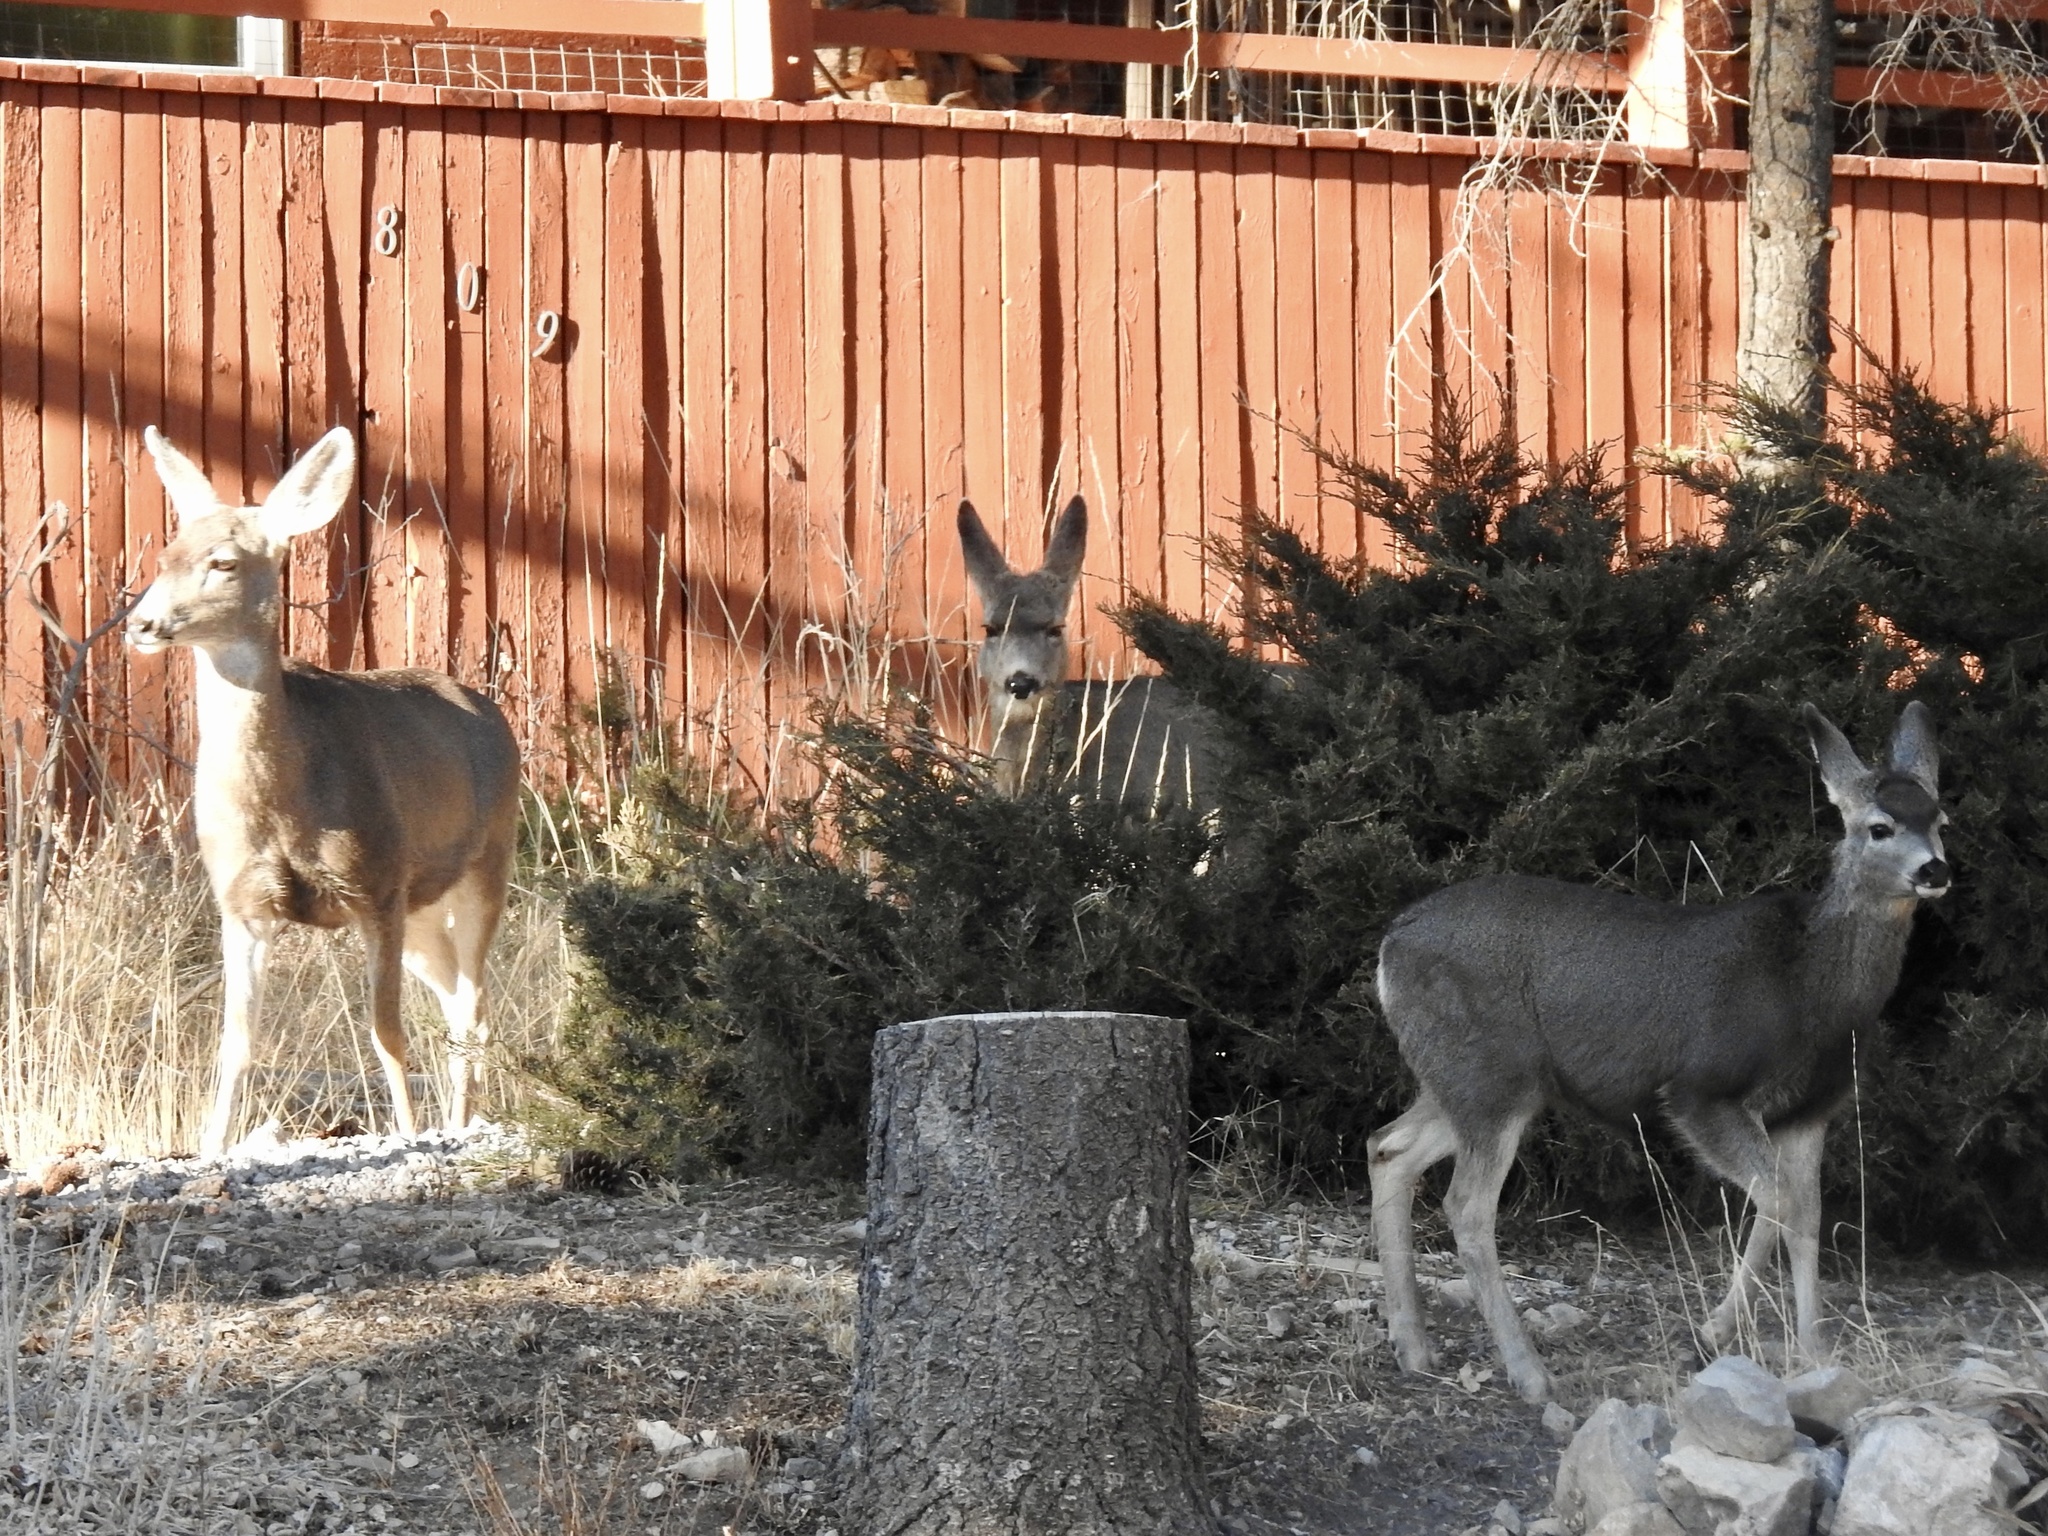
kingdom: Animalia
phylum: Chordata
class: Mammalia
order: Artiodactyla
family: Cervidae
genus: Odocoileus
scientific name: Odocoileus hemionus
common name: Mule deer
